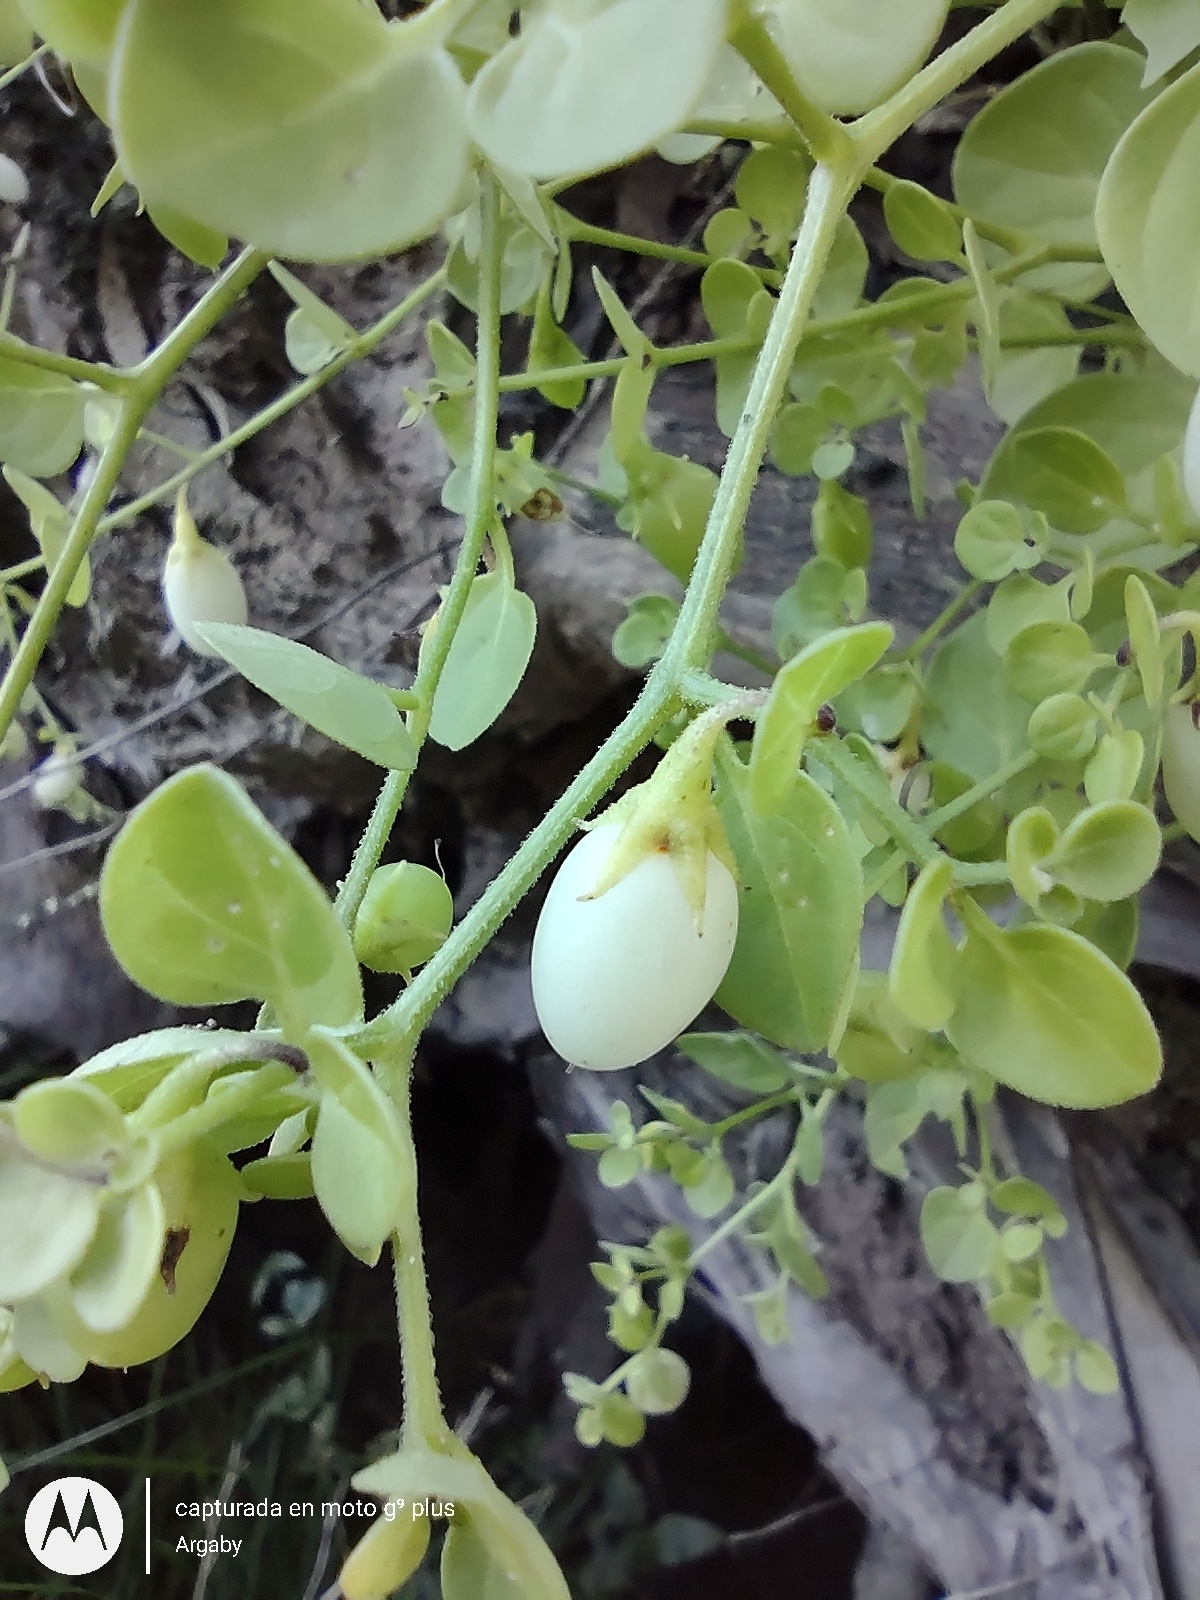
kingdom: Plantae
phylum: Tracheophyta
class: Magnoliopsida
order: Solanales
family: Solanaceae
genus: Salpichroa
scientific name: Salpichroa origanifolia
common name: Lily-of-the-valley-vine
